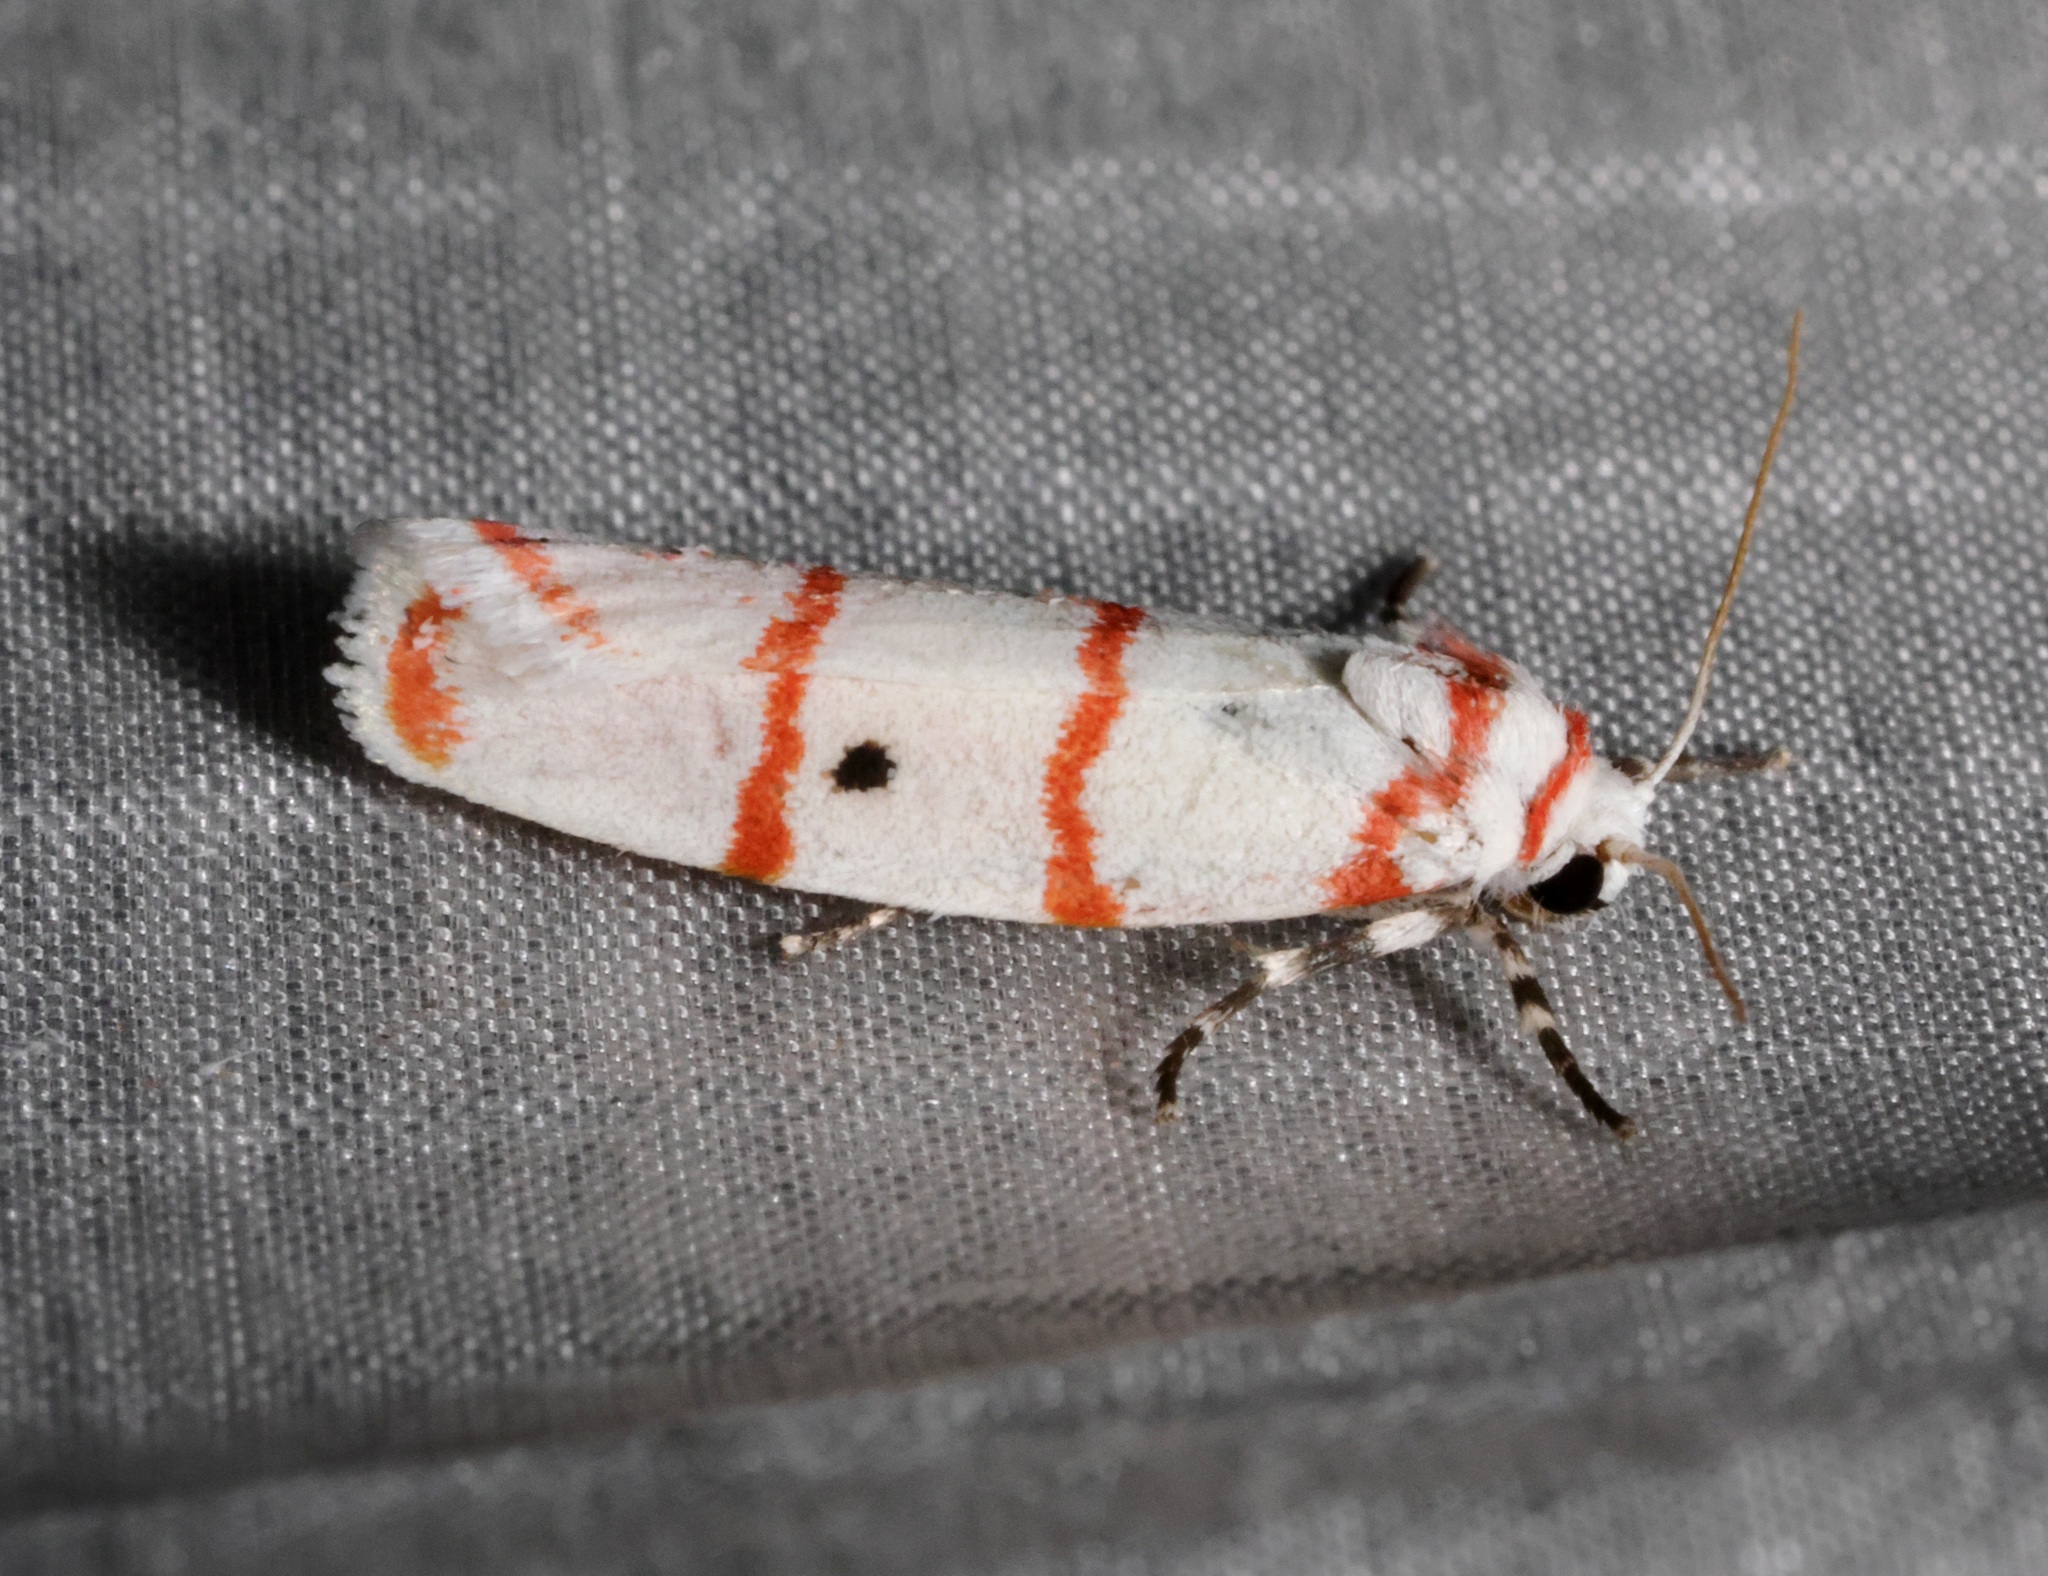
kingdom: Animalia
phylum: Arthropoda
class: Insecta
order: Lepidoptera
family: Erebidae
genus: Cyana
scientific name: Cyana gelida
